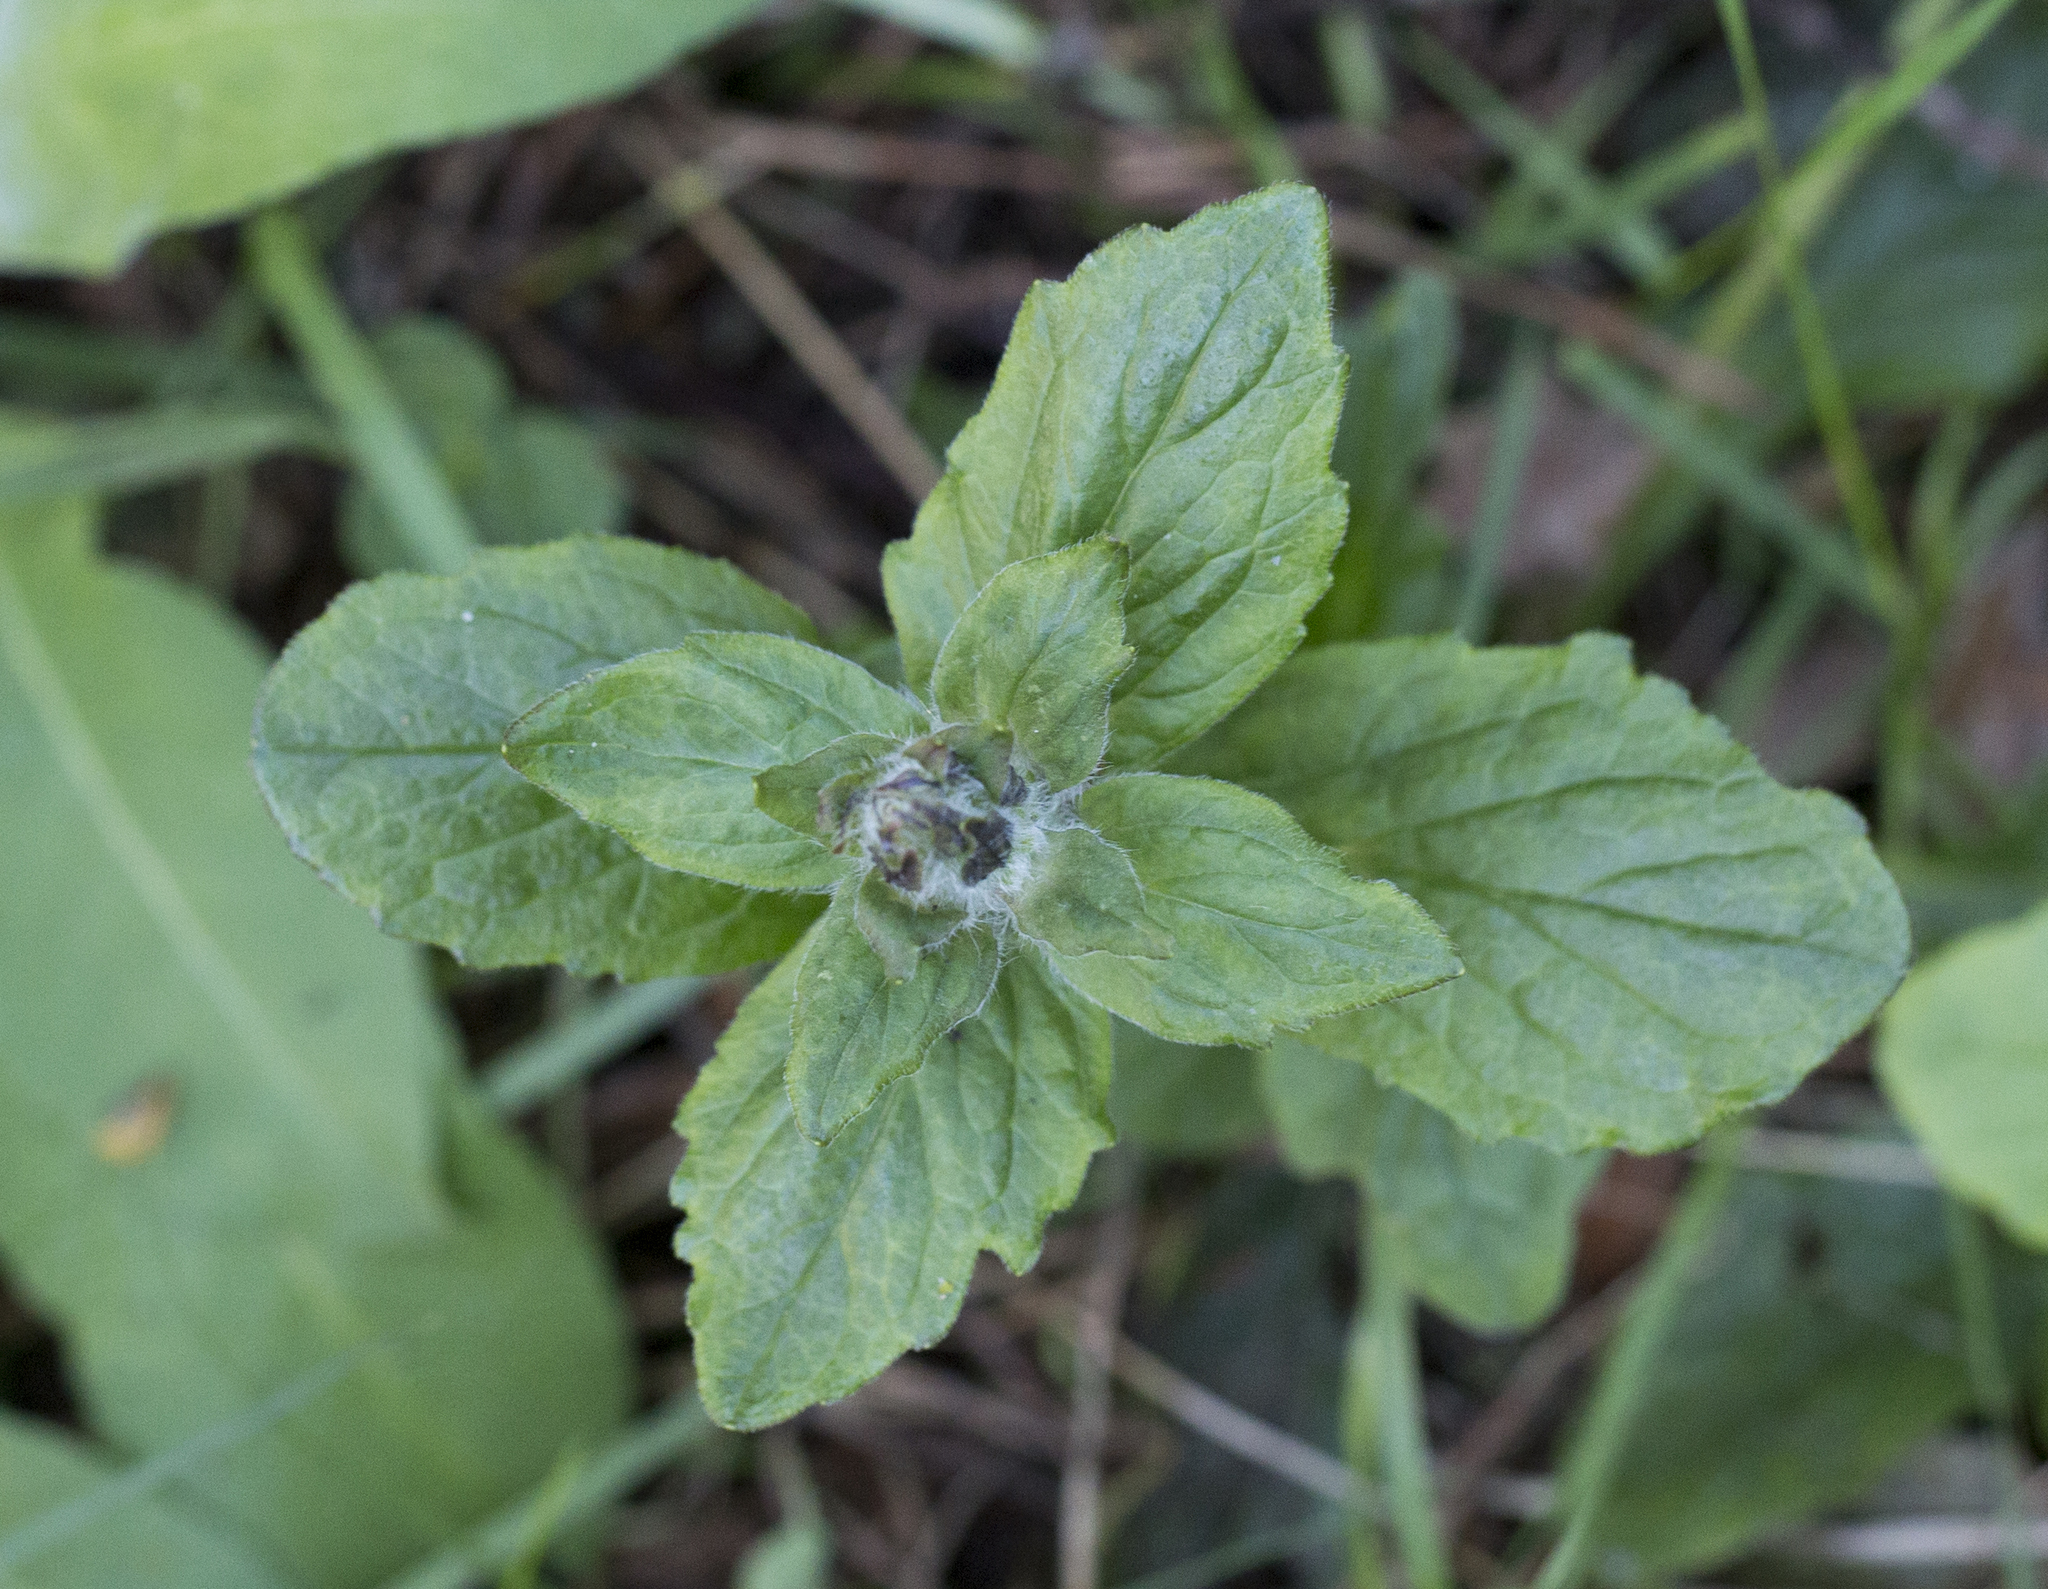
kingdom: Plantae
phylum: Tracheophyta
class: Magnoliopsida
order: Lamiales
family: Lamiaceae
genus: Ajuga
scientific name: Ajuga reptans
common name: Bugle
